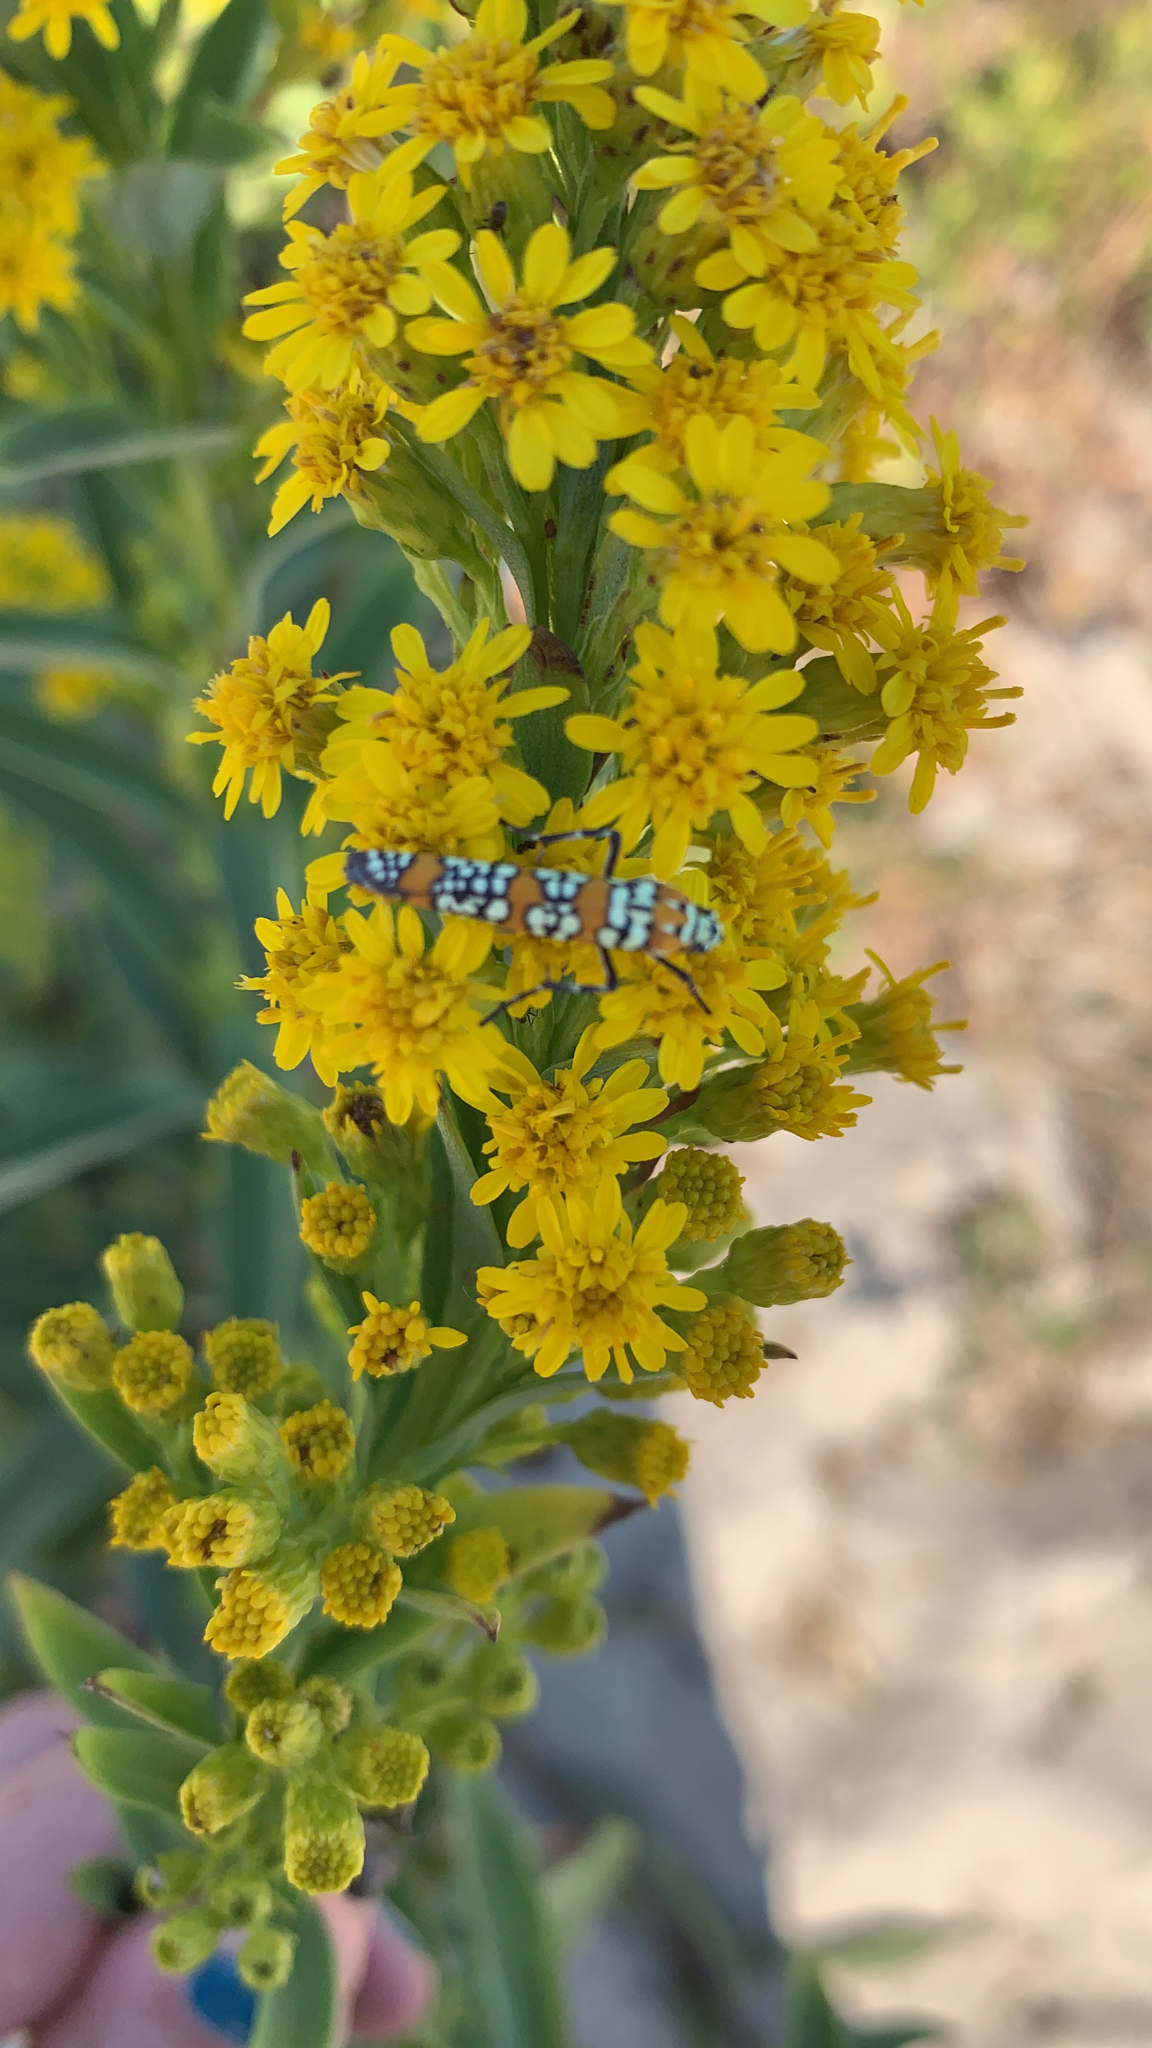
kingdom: Animalia
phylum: Arthropoda
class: Insecta
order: Lepidoptera
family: Attevidae
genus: Atteva
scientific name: Atteva punctella
